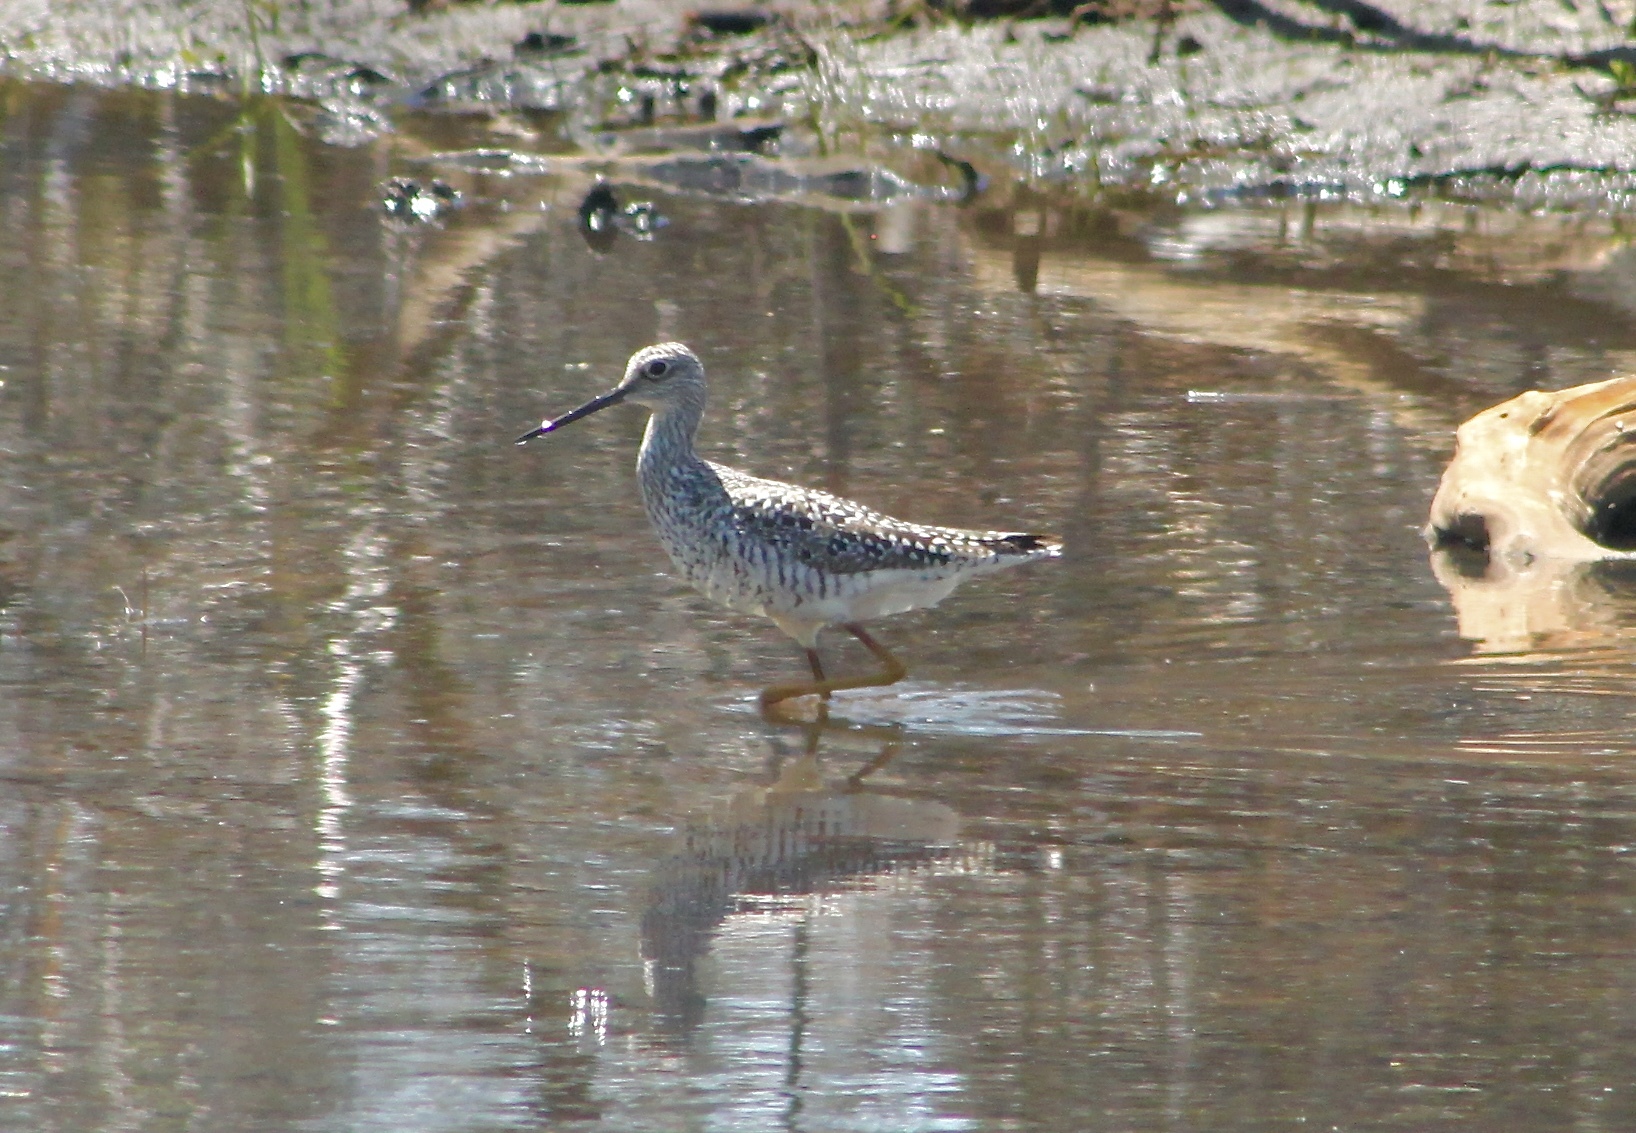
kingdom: Animalia
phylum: Chordata
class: Aves
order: Charadriiformes
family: Scolopacidae
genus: Tringa
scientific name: Tringa melanoleuca
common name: Greater yellowlegs
